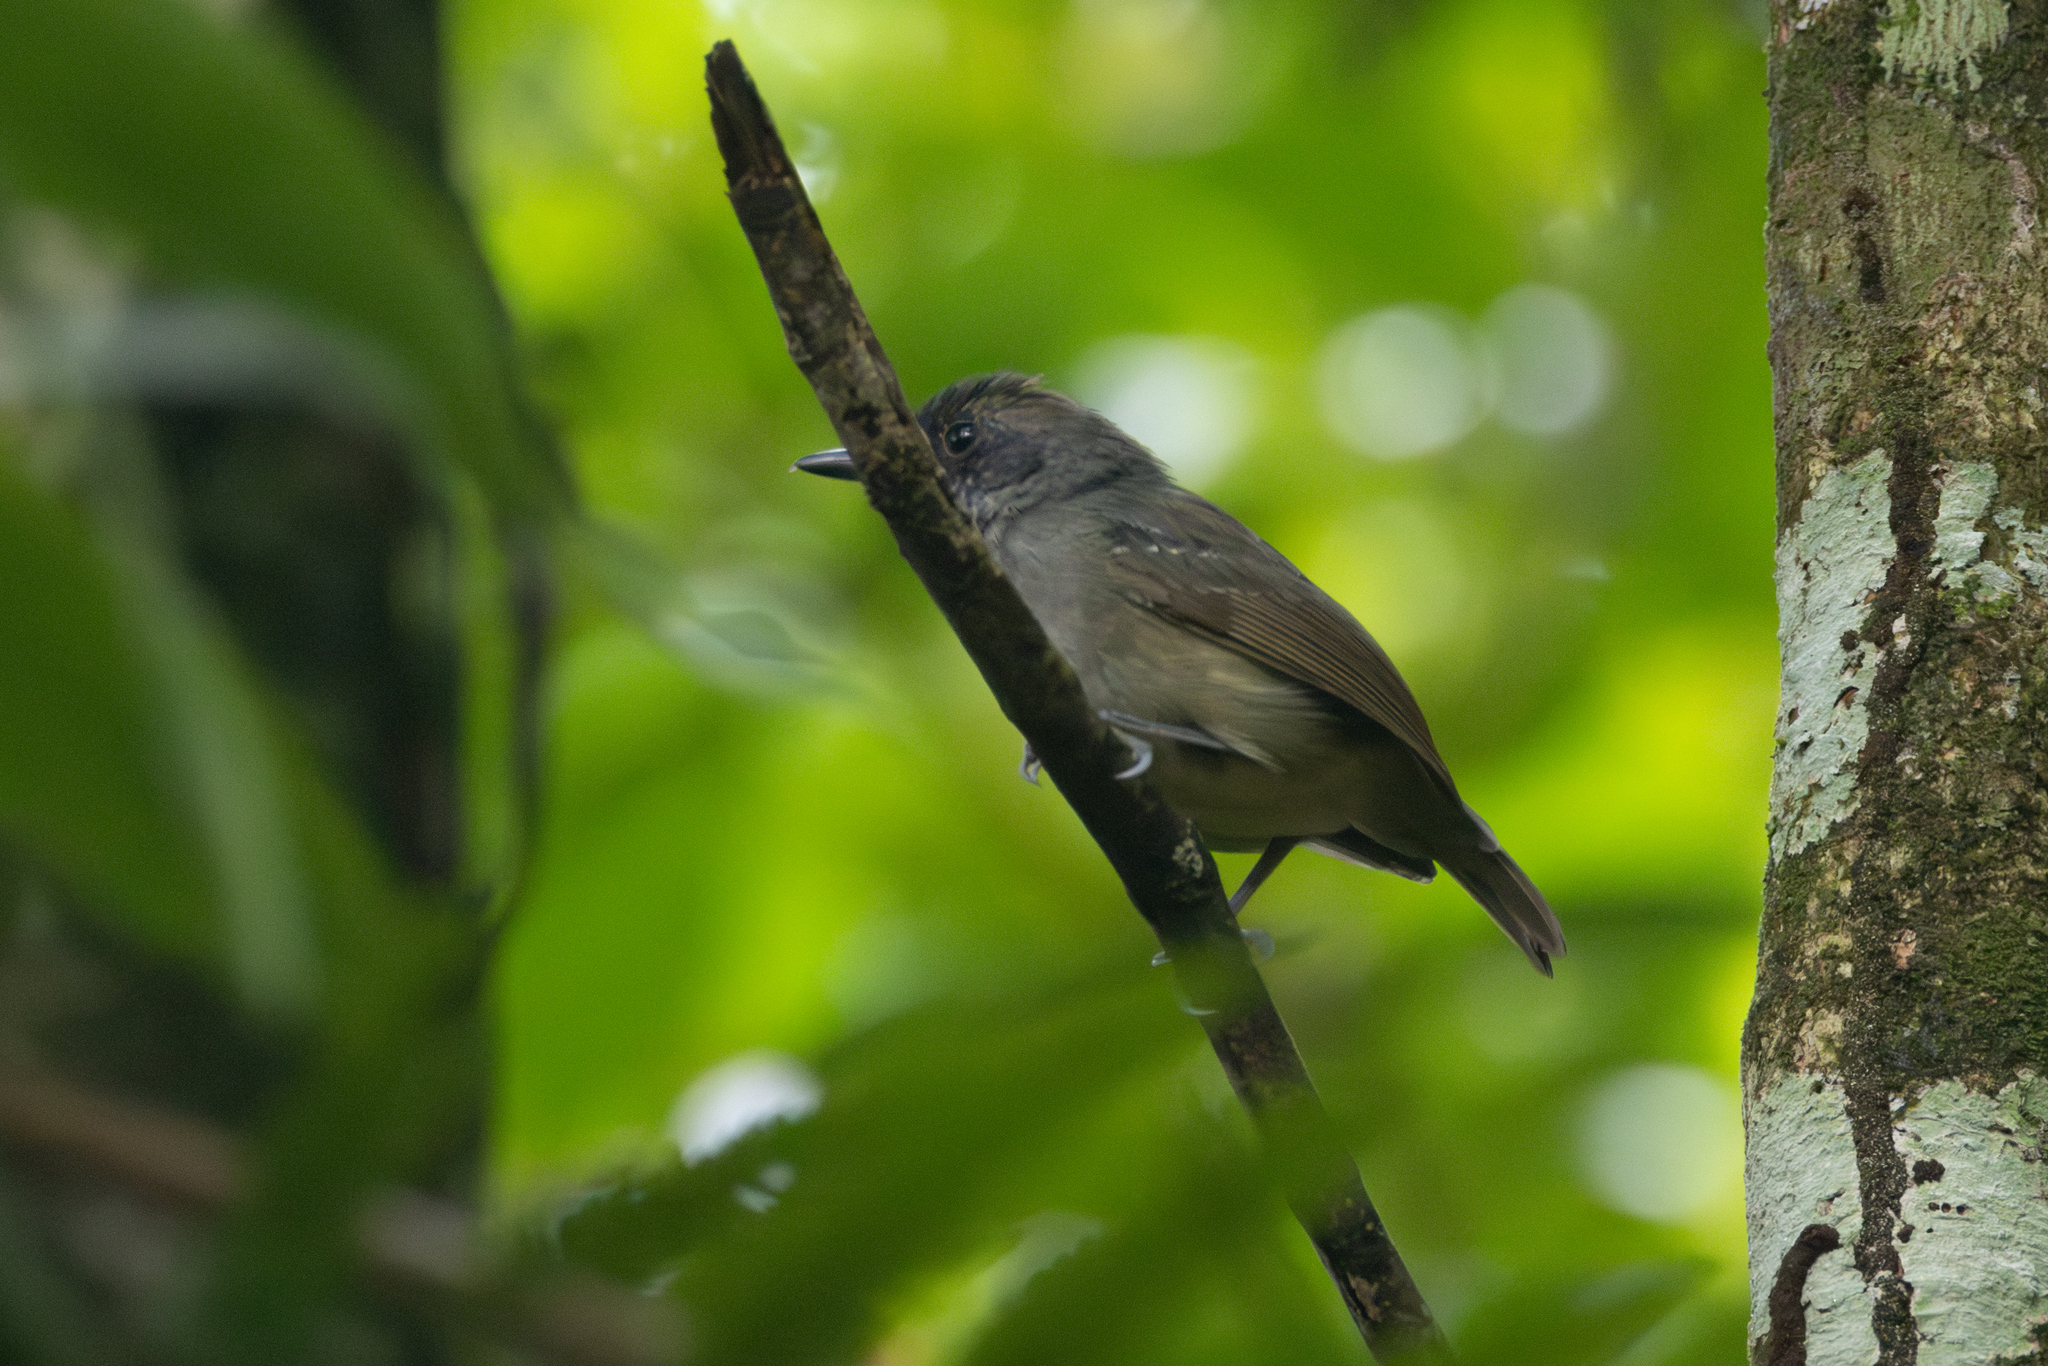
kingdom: Animalia
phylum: Chordata
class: Aves
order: Passeriformes
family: Thamnophilidae
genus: Dysithamnus
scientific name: Dysithamnus mentalis
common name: Plain antvireo
